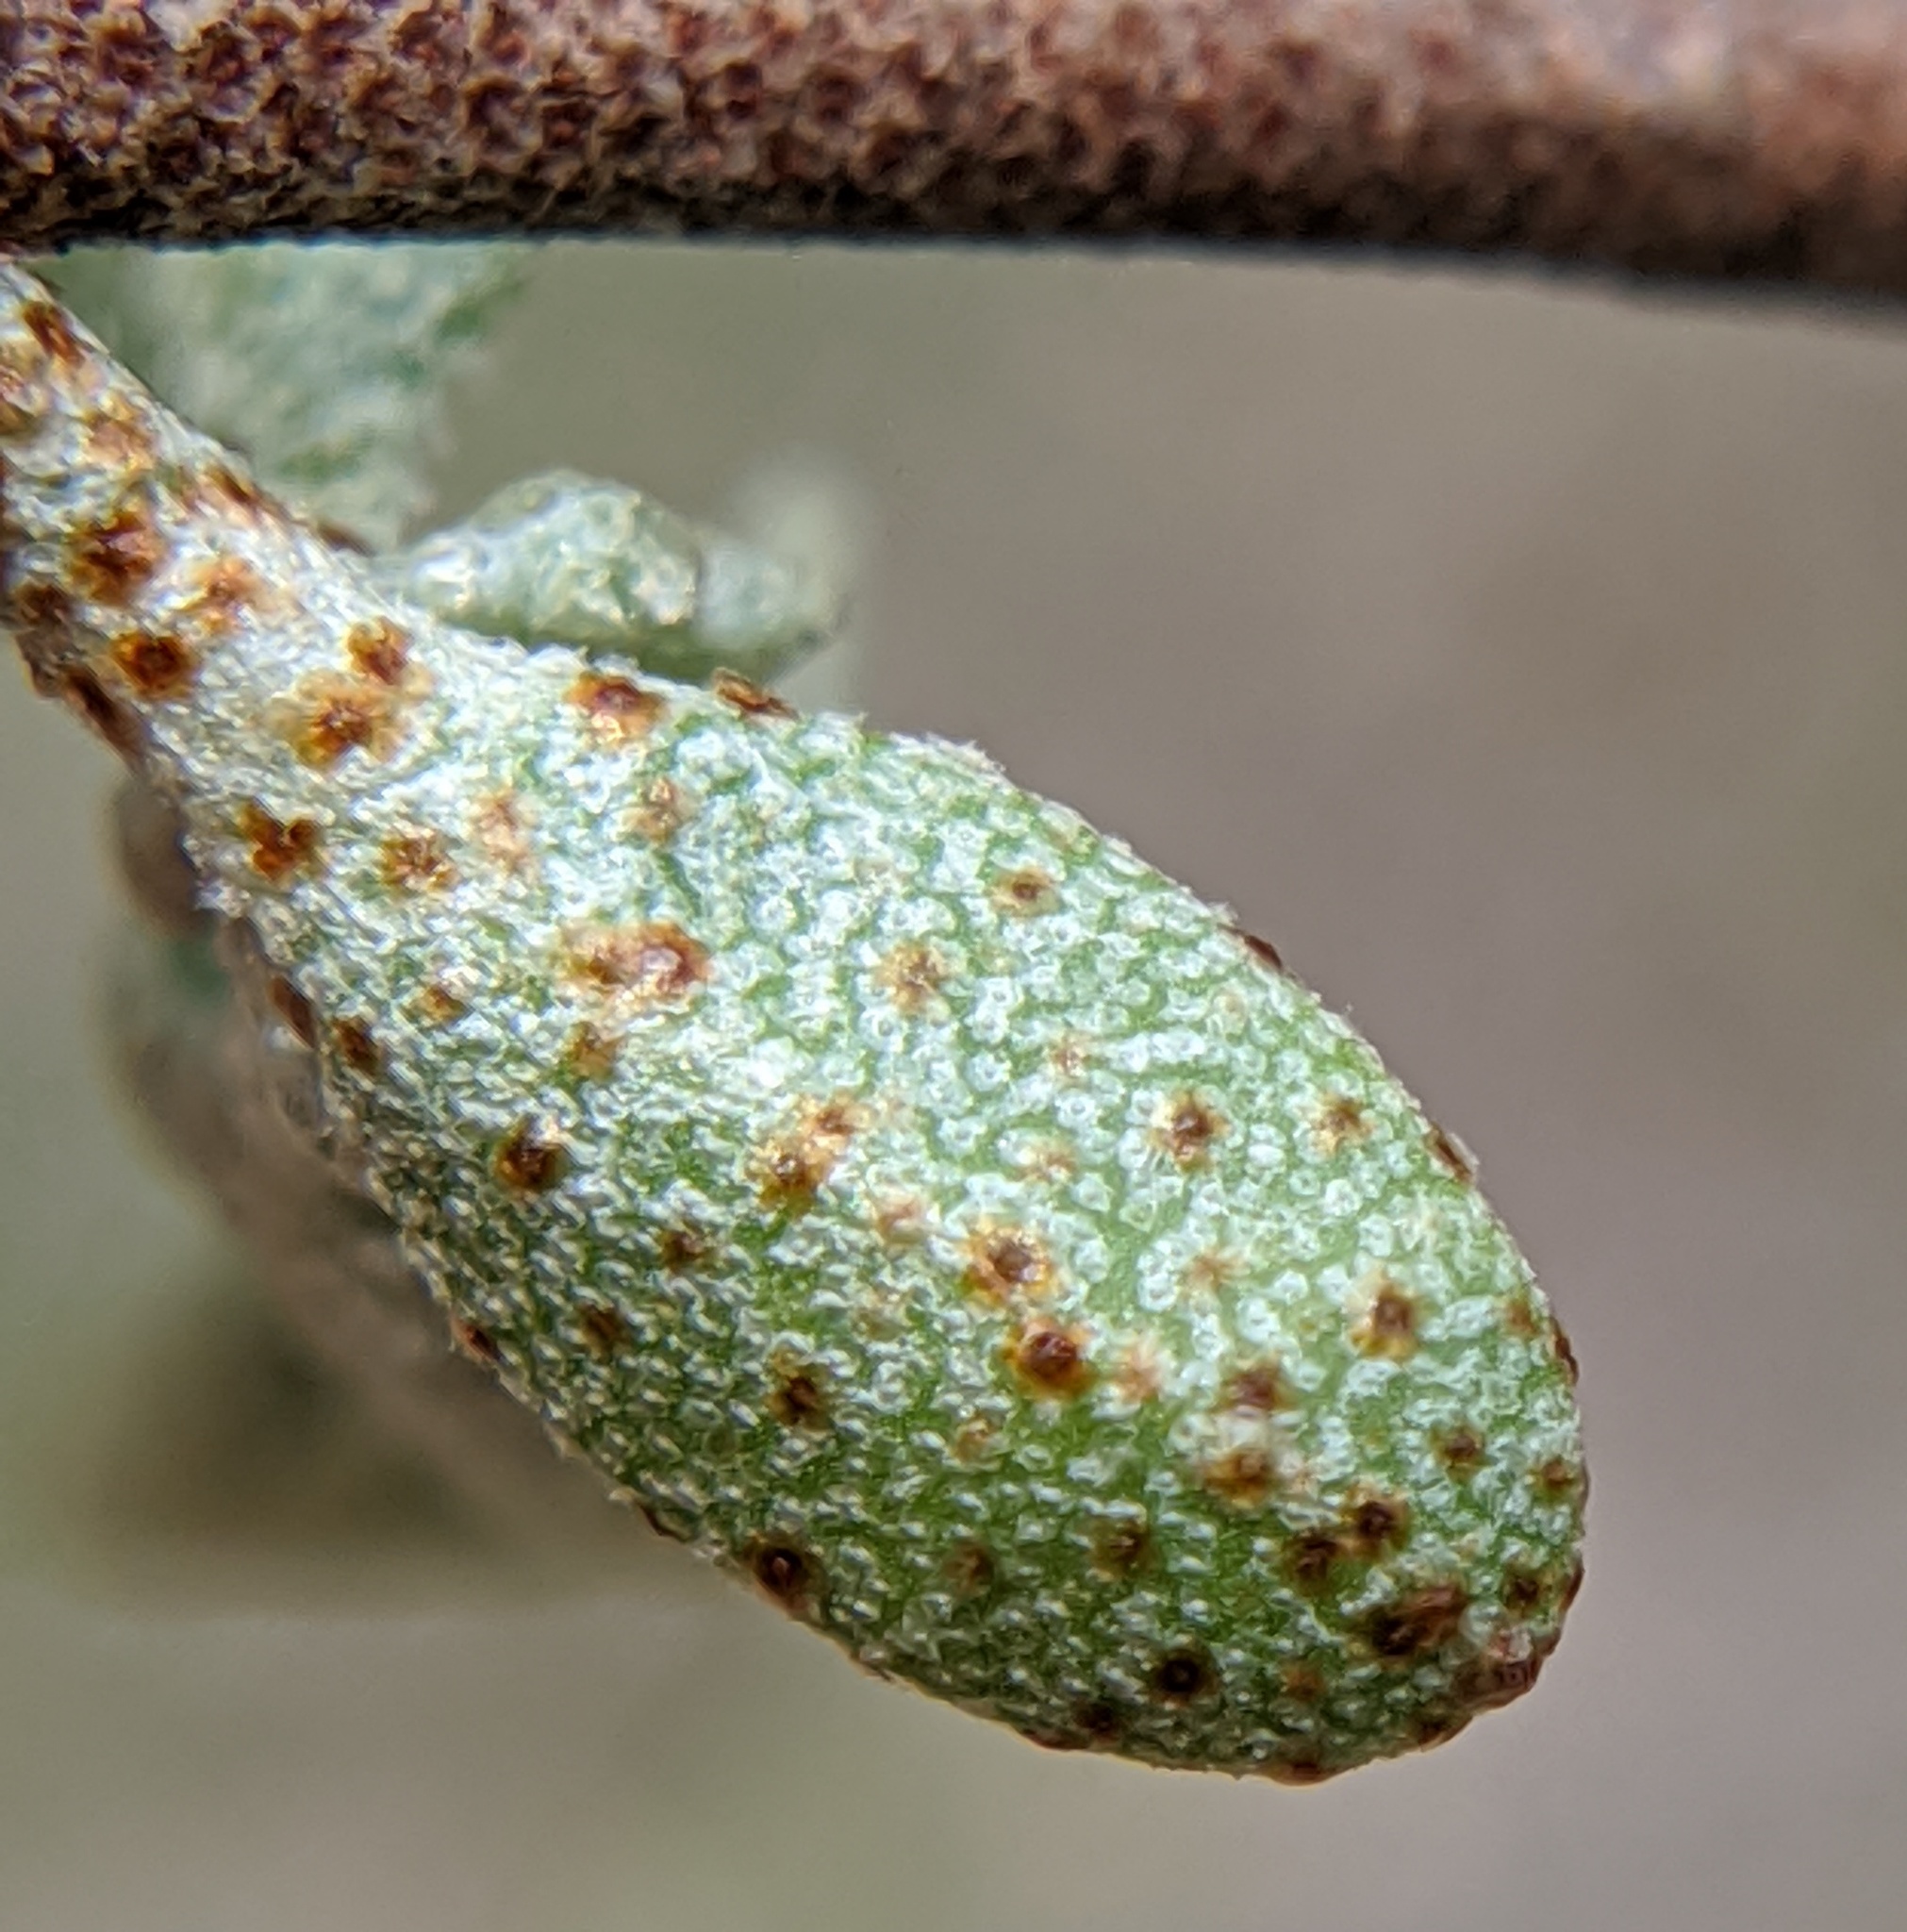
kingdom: Plantae
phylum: Tracheophyta
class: Magnoliopsida
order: Rosales
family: Elaeagnaceae
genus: Elaeagnus
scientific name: Elaeagnus umbellata
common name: Autumn olive
